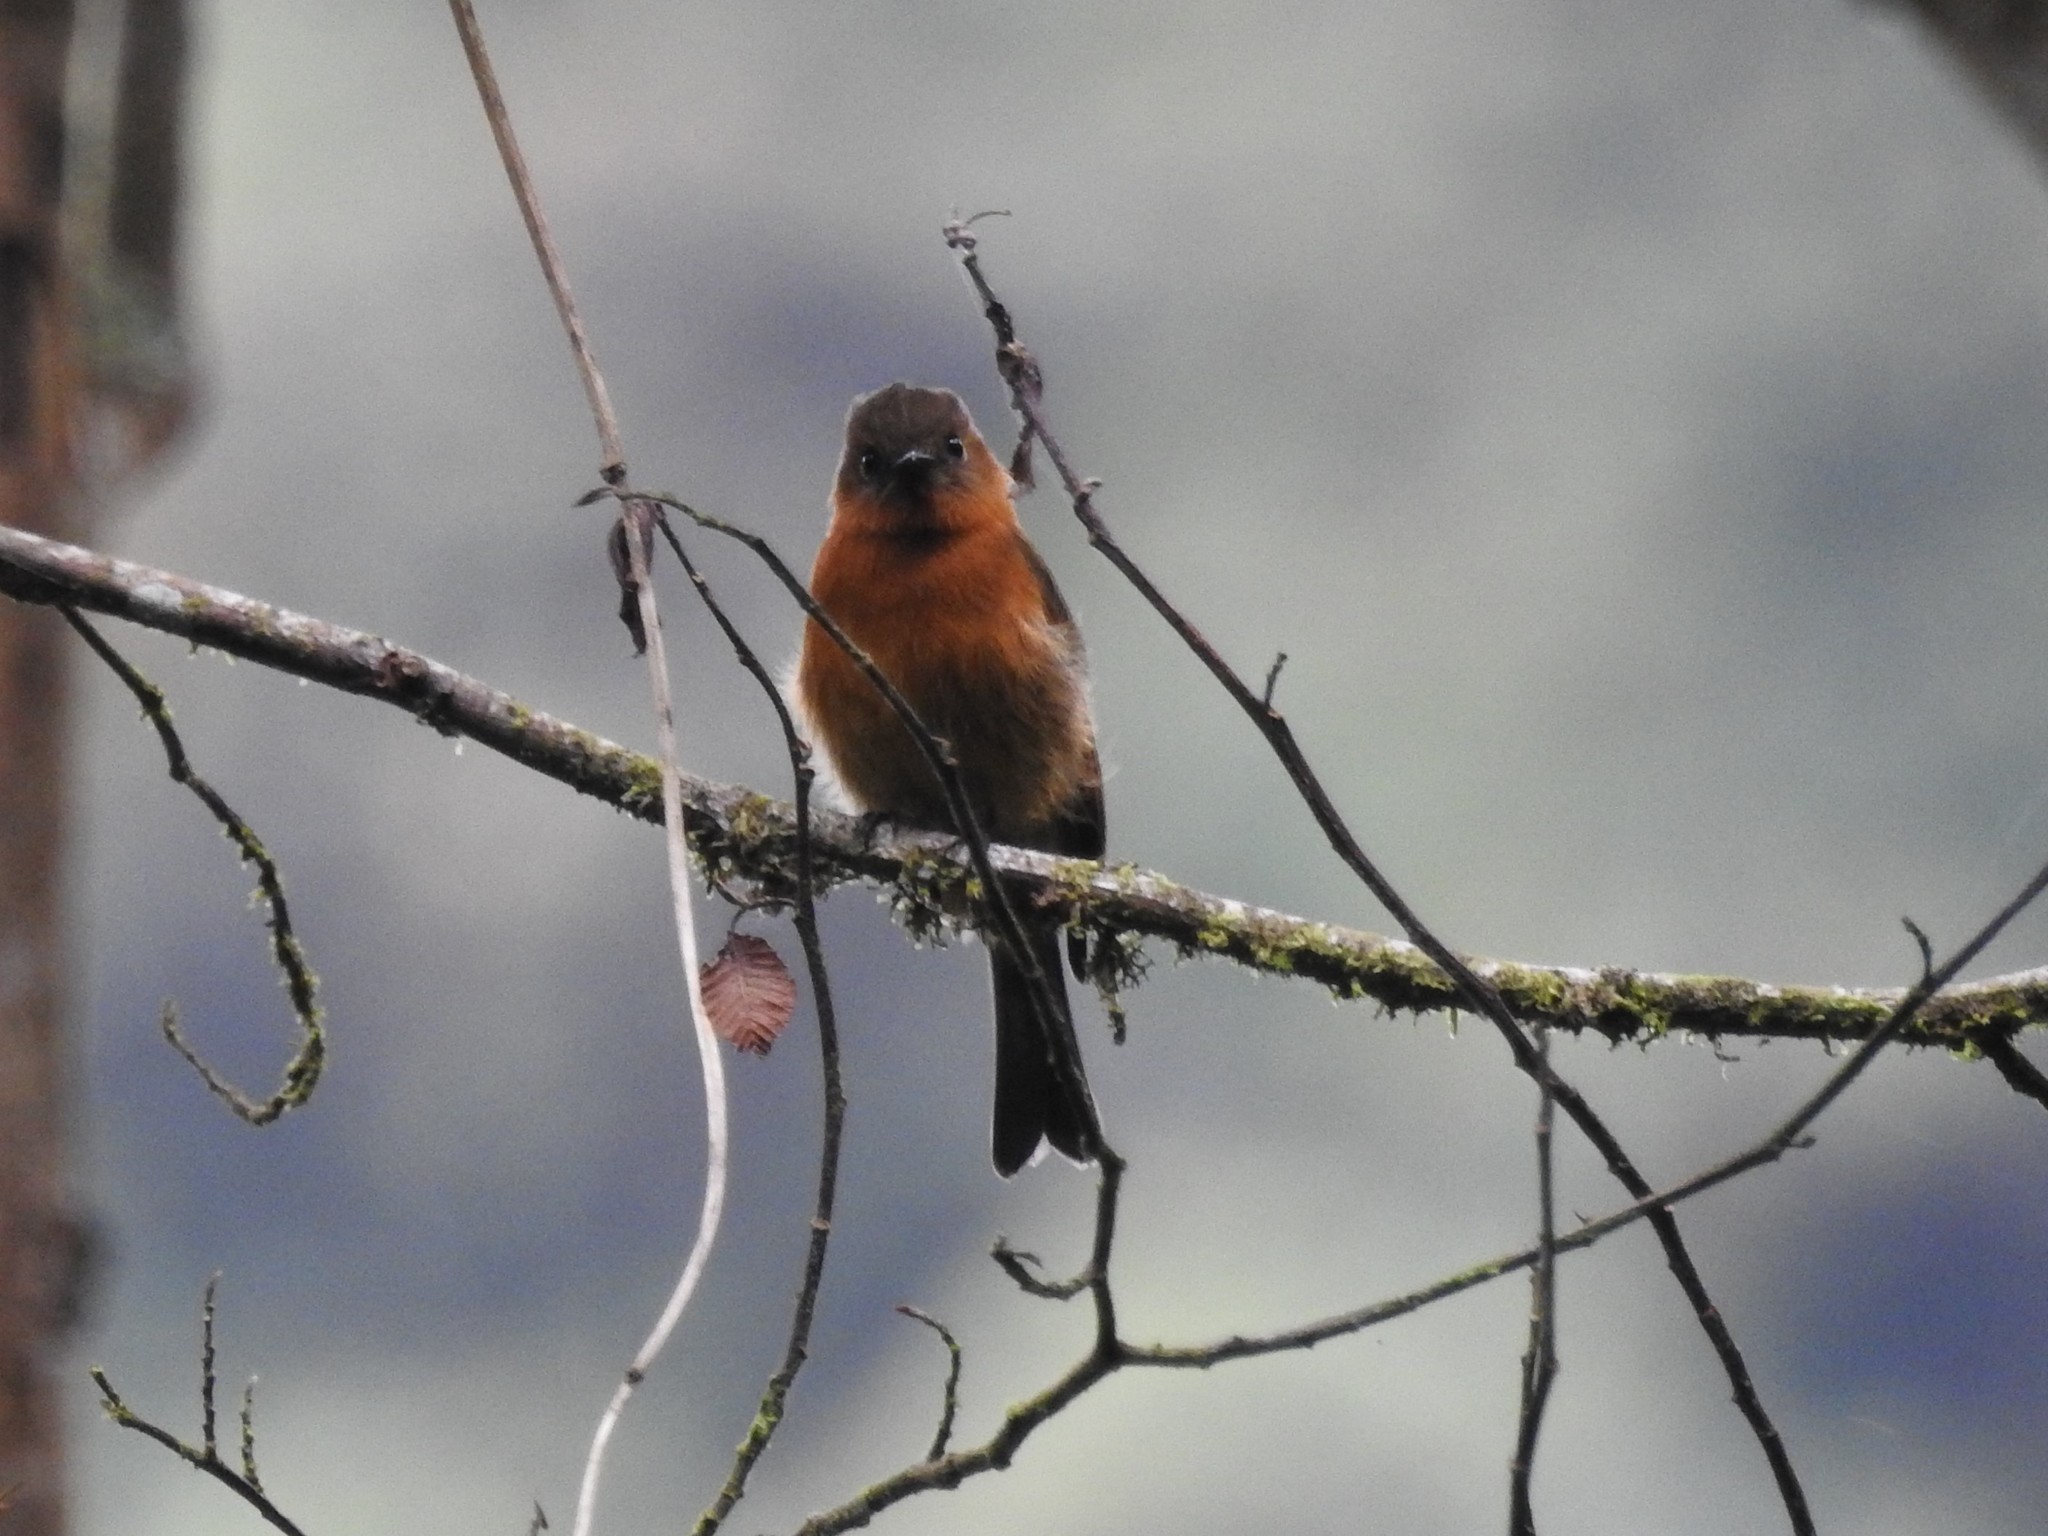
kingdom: Animalia
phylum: Chordata
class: Aves
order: Passeriformes
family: Tyrannidae
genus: Pyrrhomyias
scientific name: Pyrrhomyias cinnamomeus
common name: Cinnamon flycatcher
